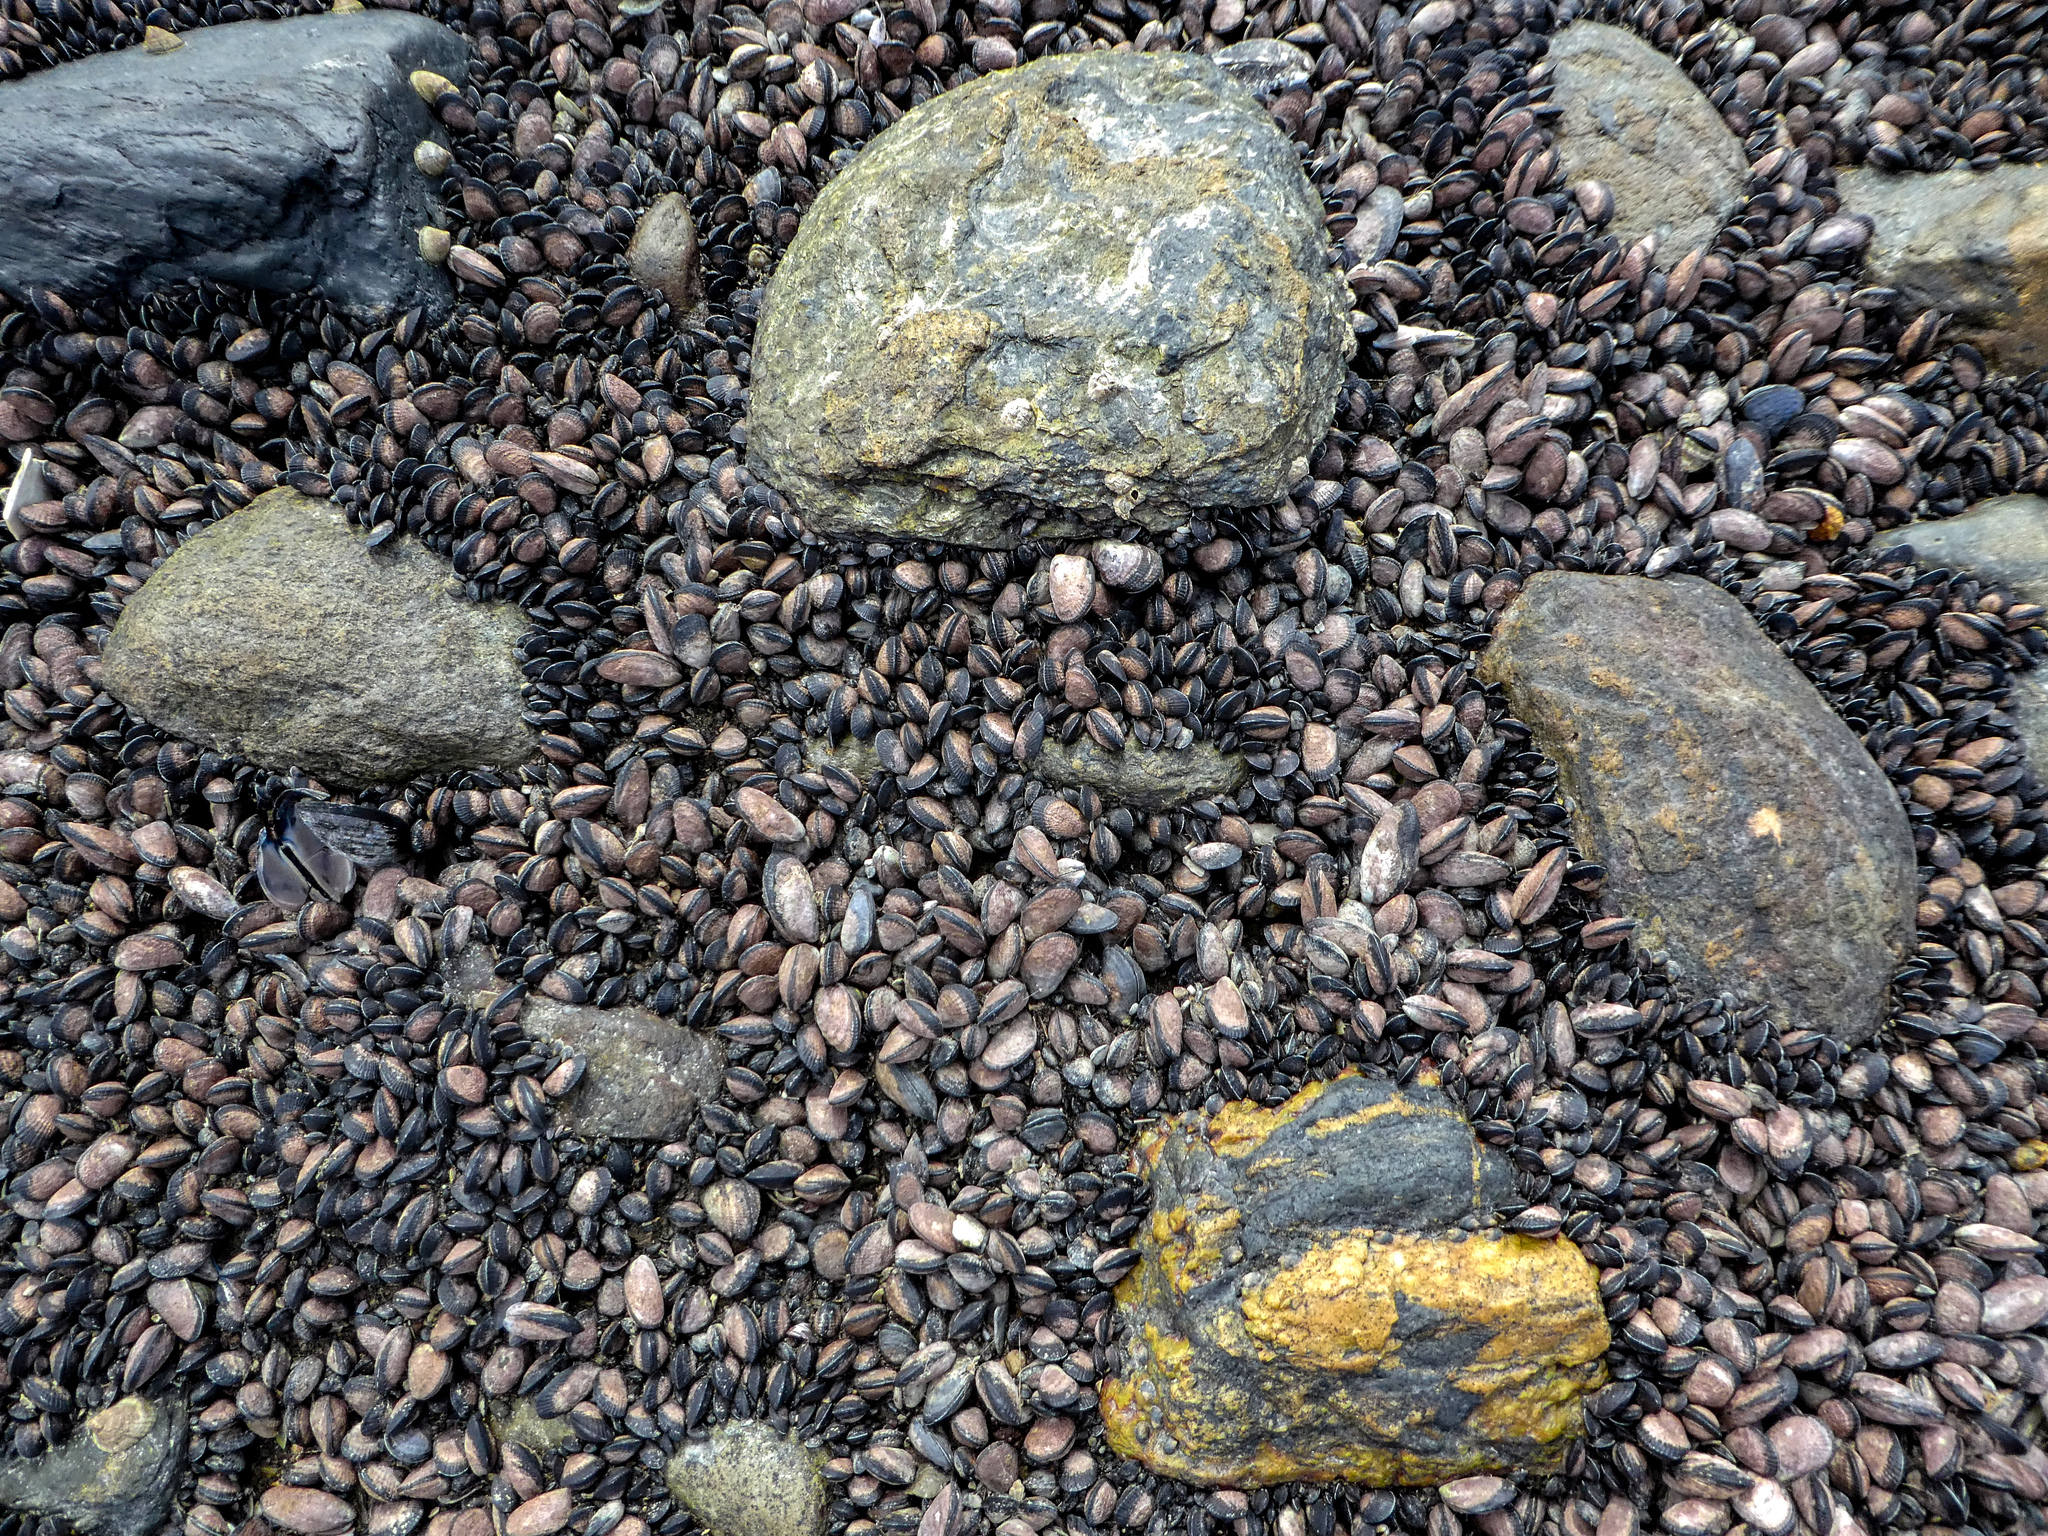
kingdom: Animalia
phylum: Mollusca
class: Bivalvia
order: Mytilida
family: Mytilidae
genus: Perumytilus
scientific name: Perumytilus purpuratus
